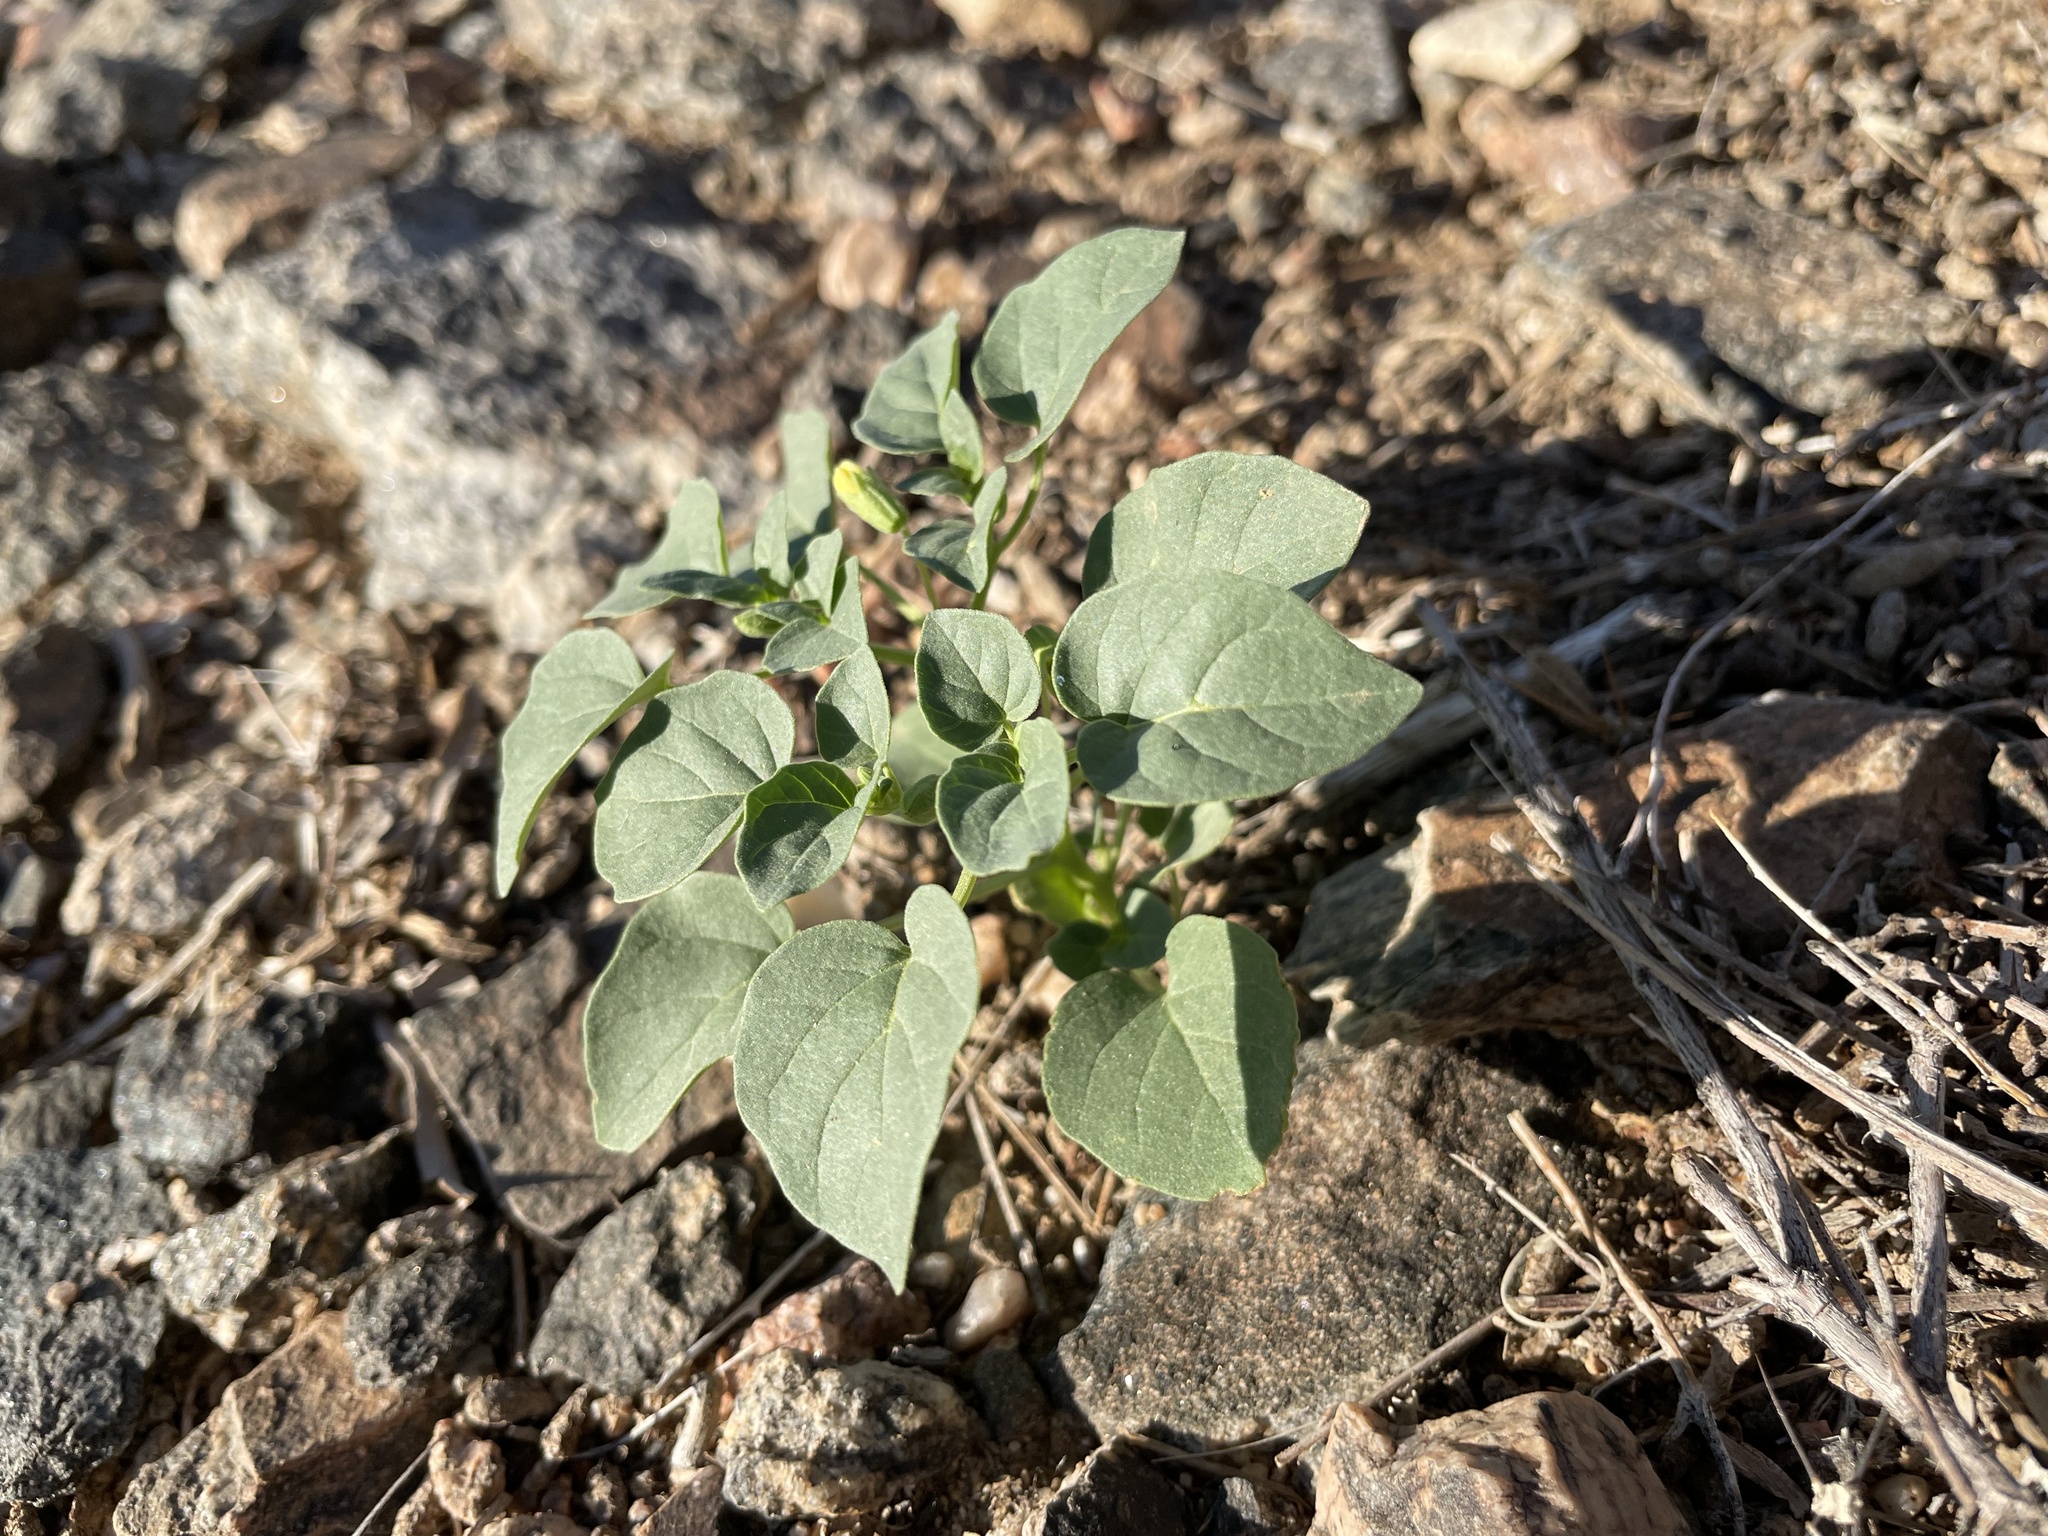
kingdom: Plantae
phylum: Tracheophyta
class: Magnoliopsida
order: Solanales
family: Solanaceae
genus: Physalis
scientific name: Physalis crassifolia
